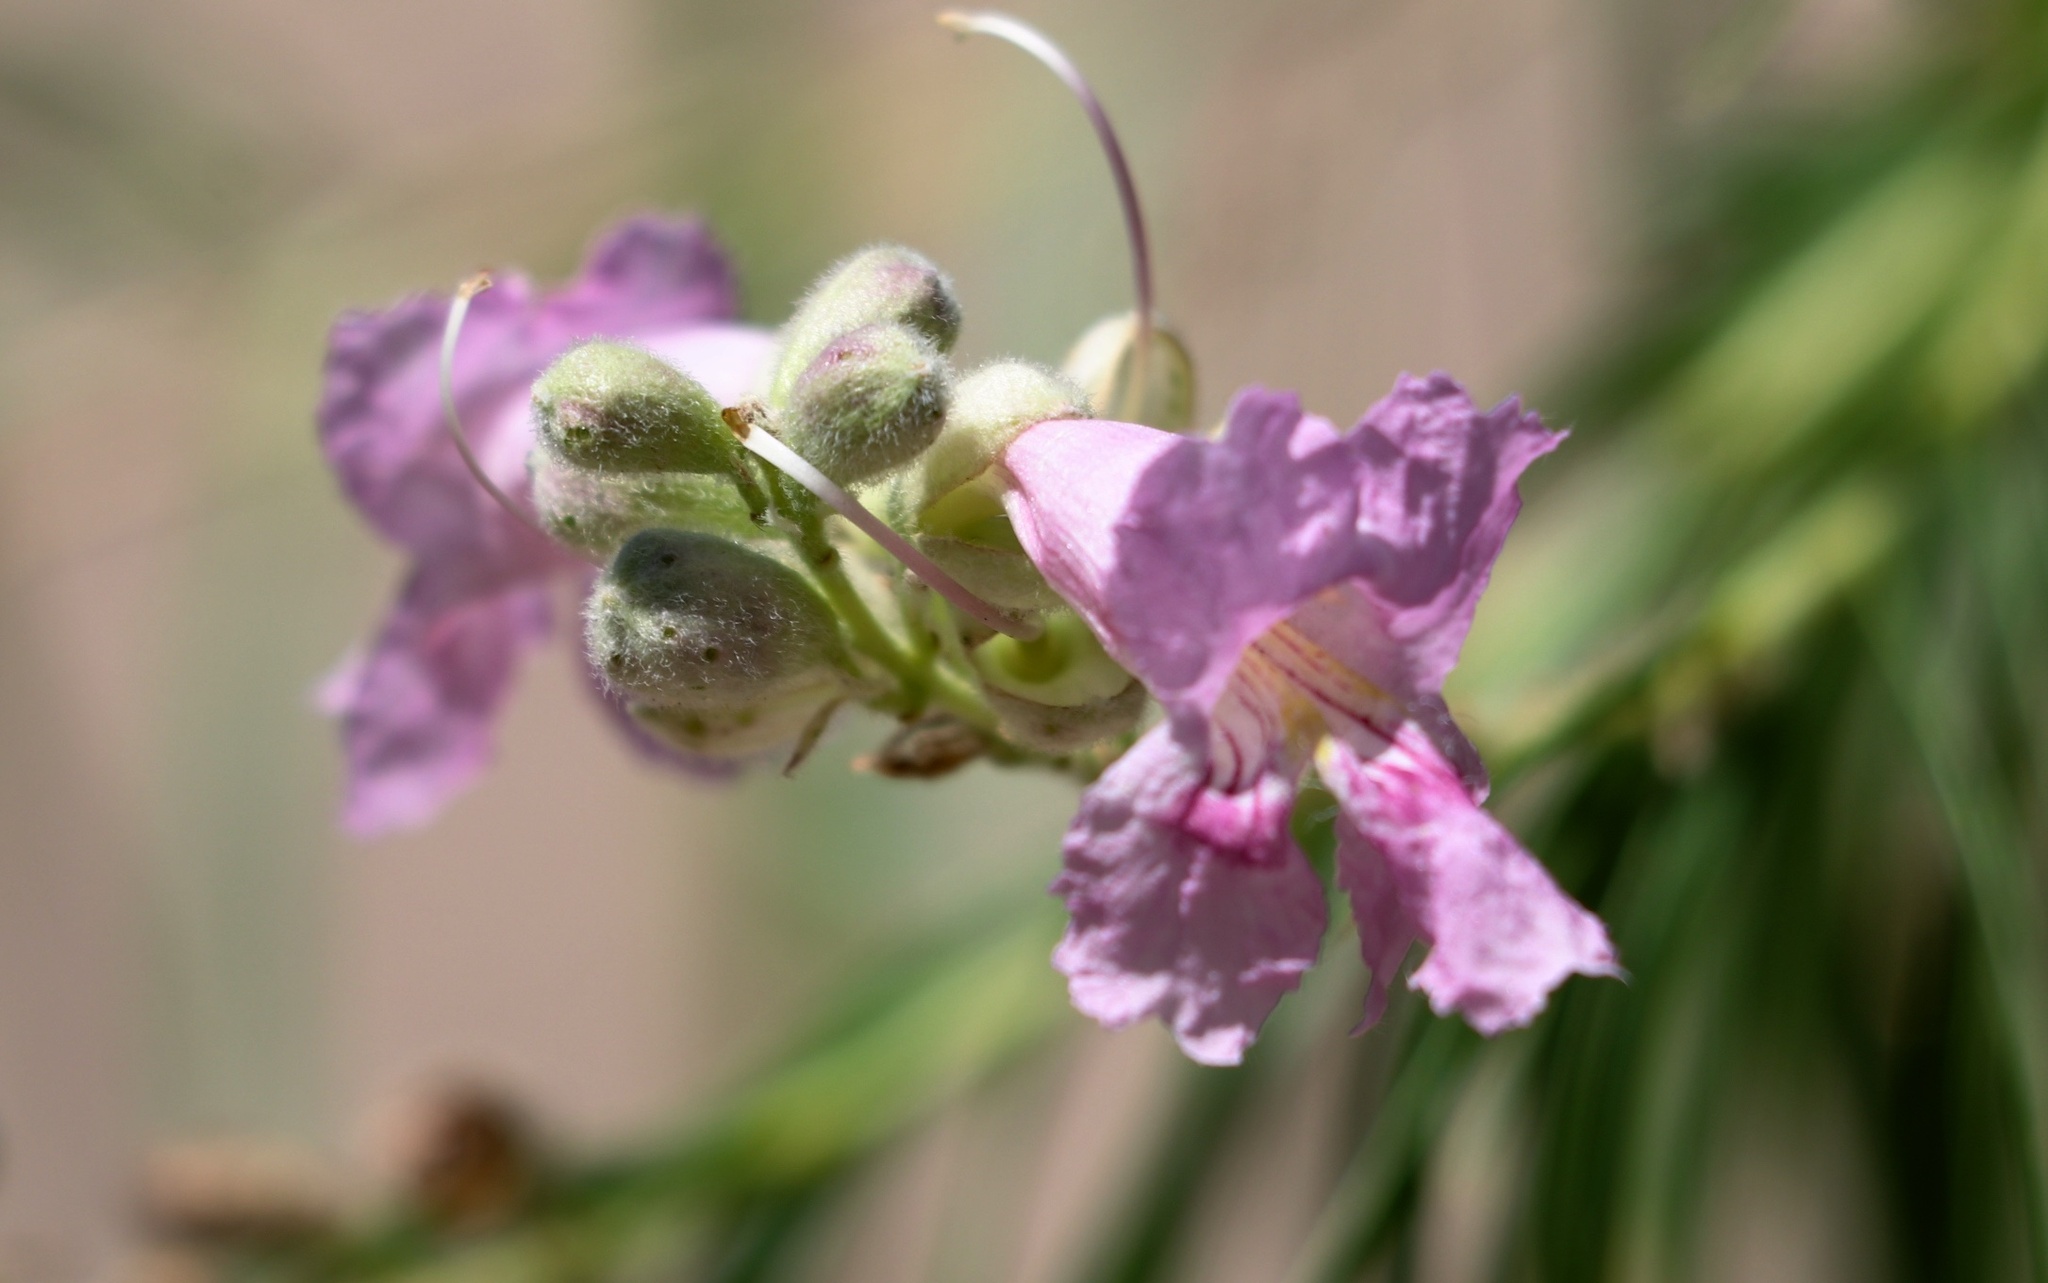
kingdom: Plantae
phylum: Tracheophyta
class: Magnoliopsida
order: Lamiales
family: Bignoniaceae
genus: Chilopsis
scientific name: Chilopsis linearis
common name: Desert-willow
